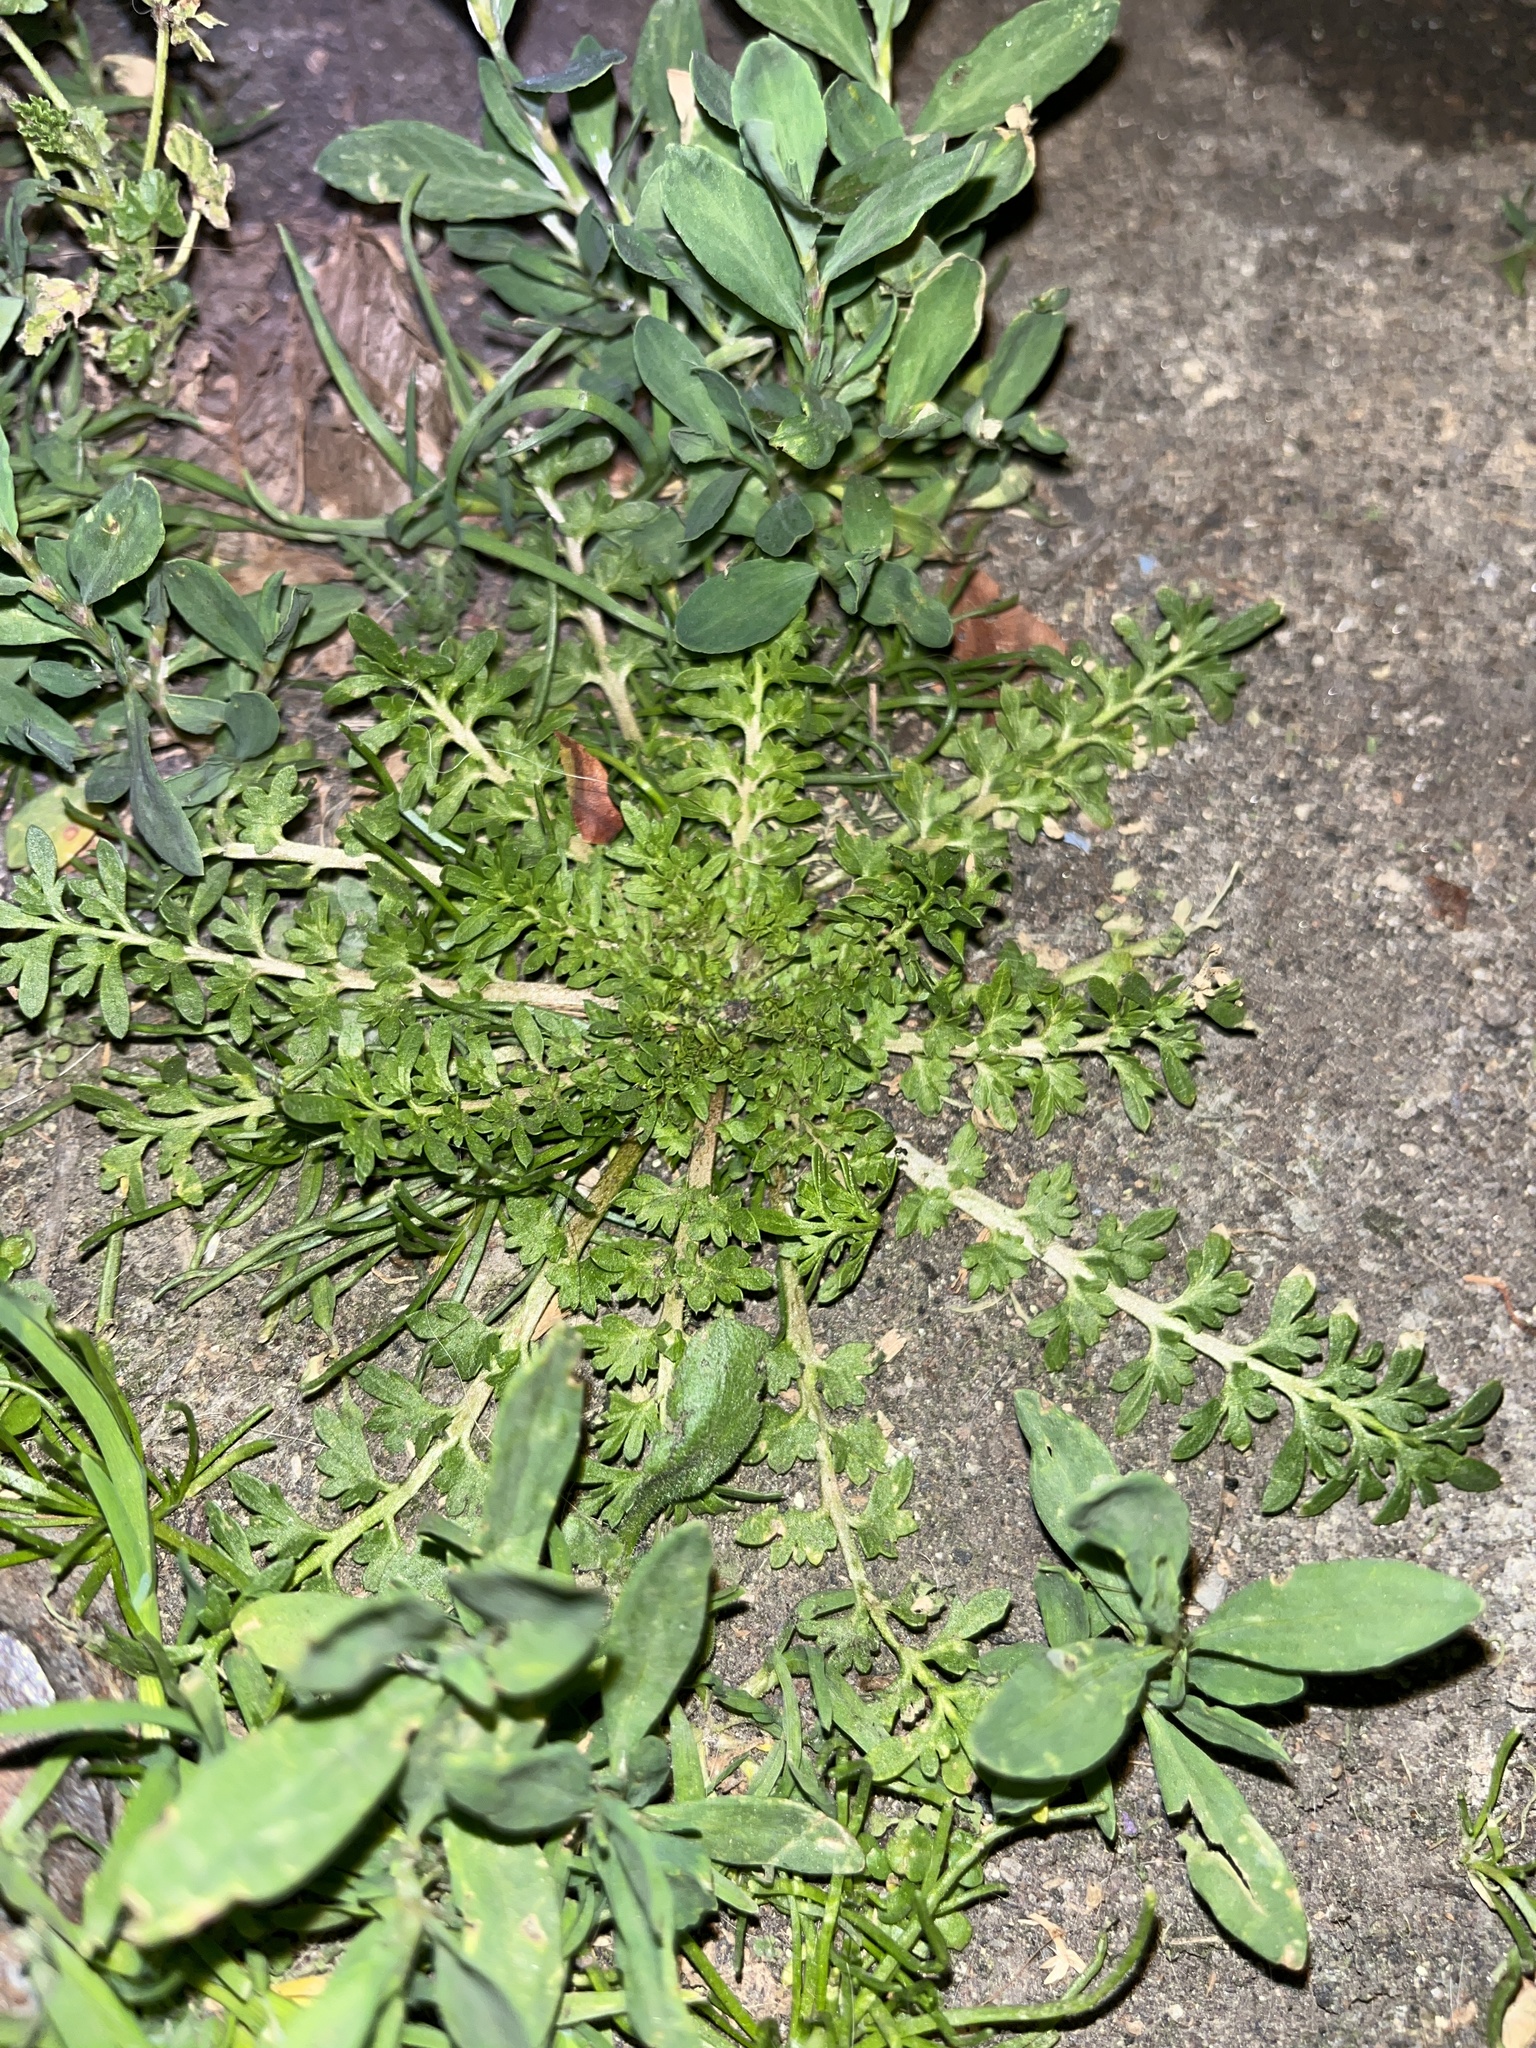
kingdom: Plantae
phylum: Tracheophyta
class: Magnoliopsida
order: Brassicales
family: Brassicaceae
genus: Lepidium
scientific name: Lepidium didymum
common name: Lesser swinecress
